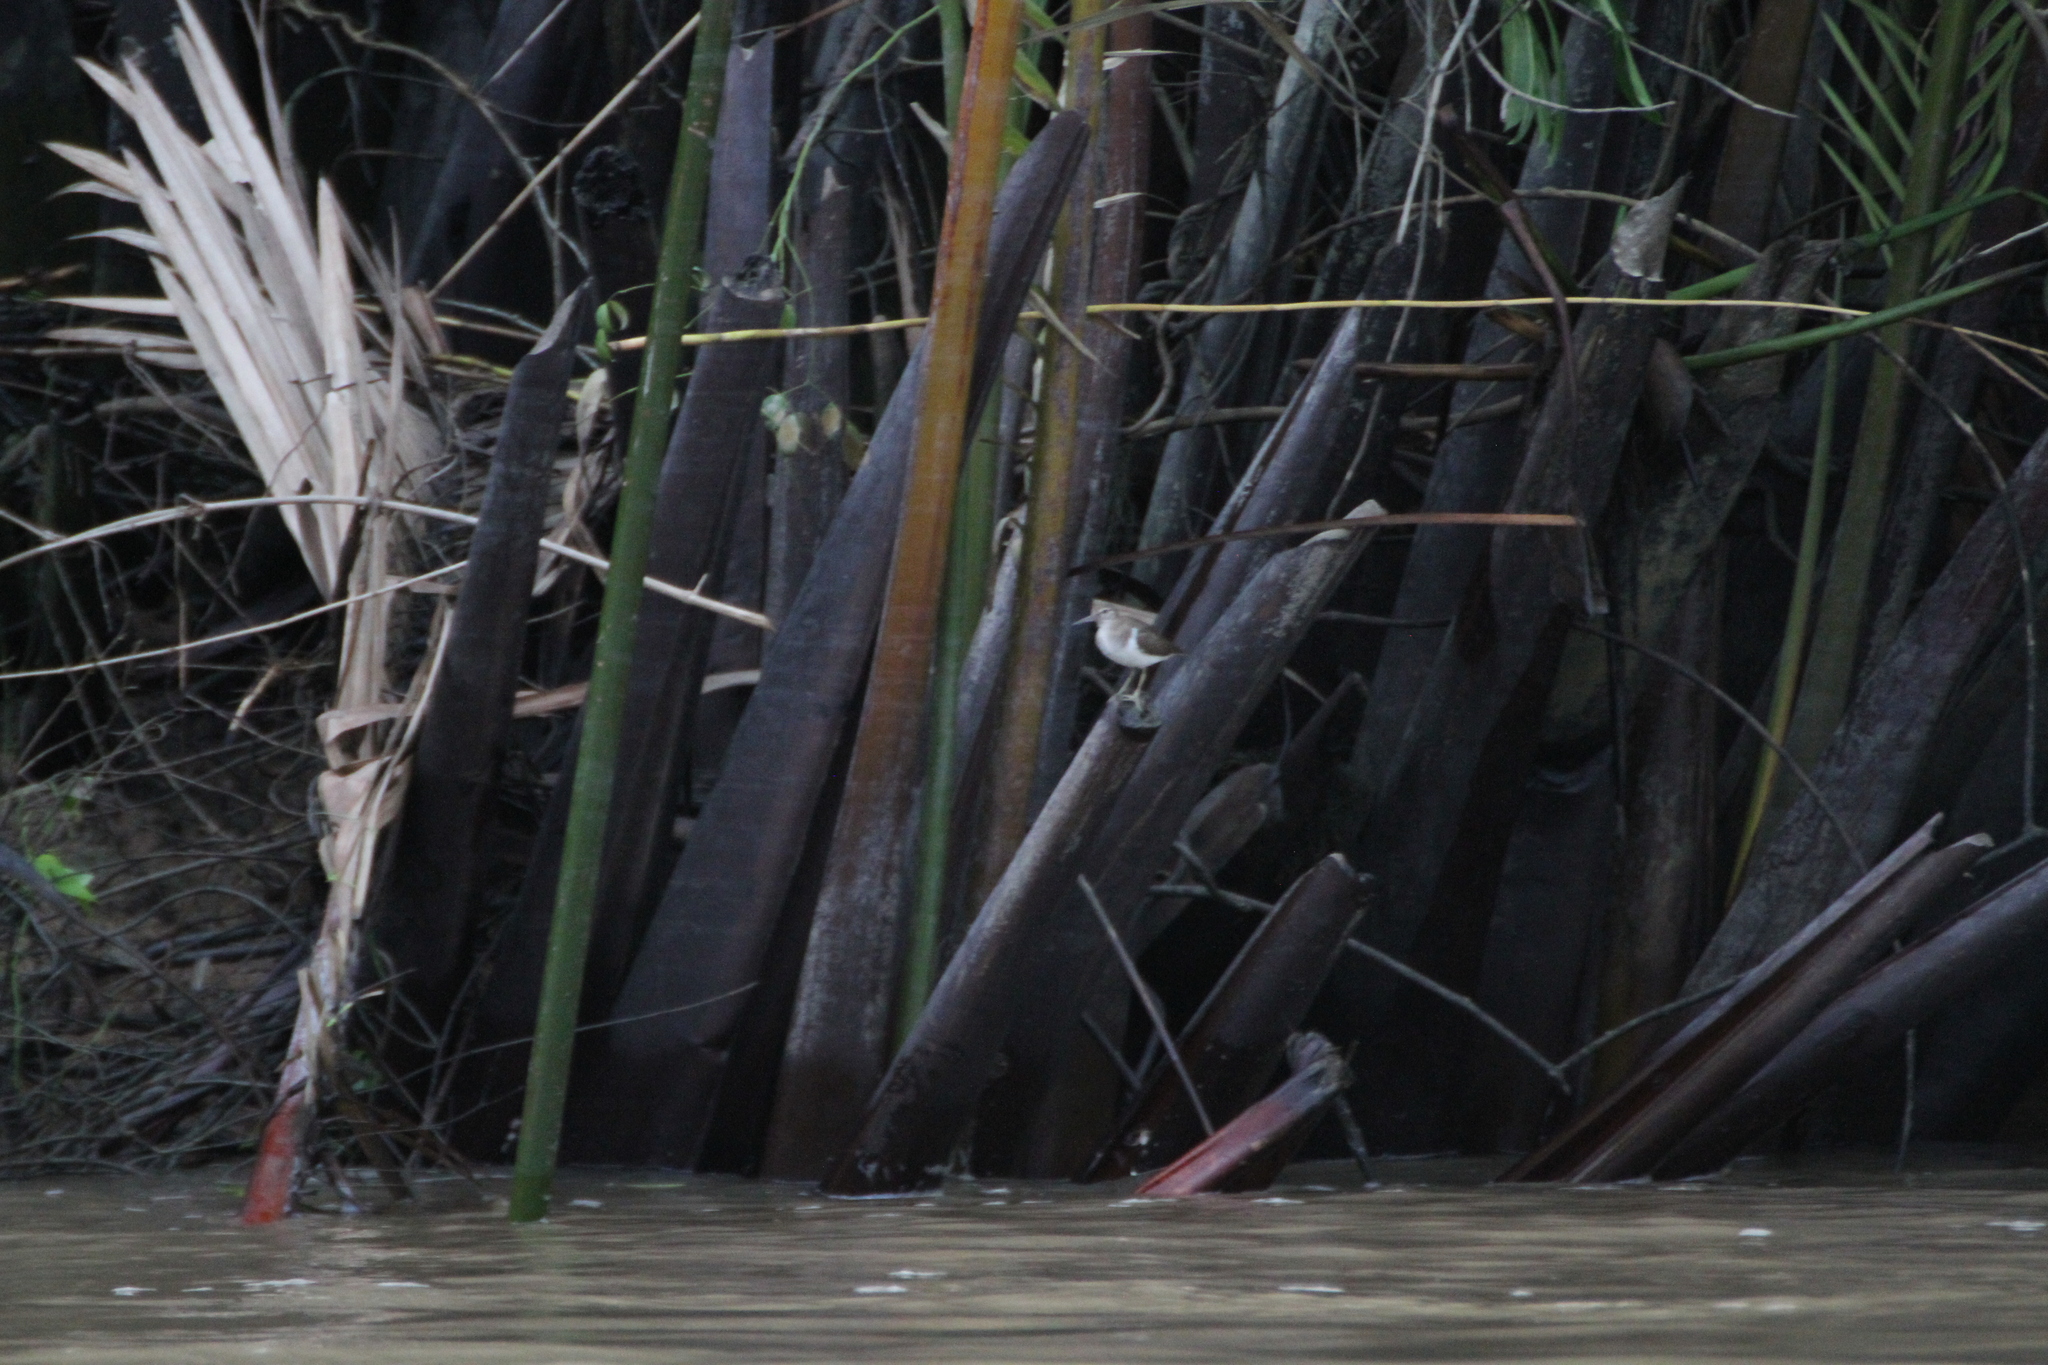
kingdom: Animalia
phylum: Chordata
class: Aves
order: Charadriiformes
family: Scolopacidae
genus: Actitis
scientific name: Actitis hypoleucos
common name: Common sandpiper
